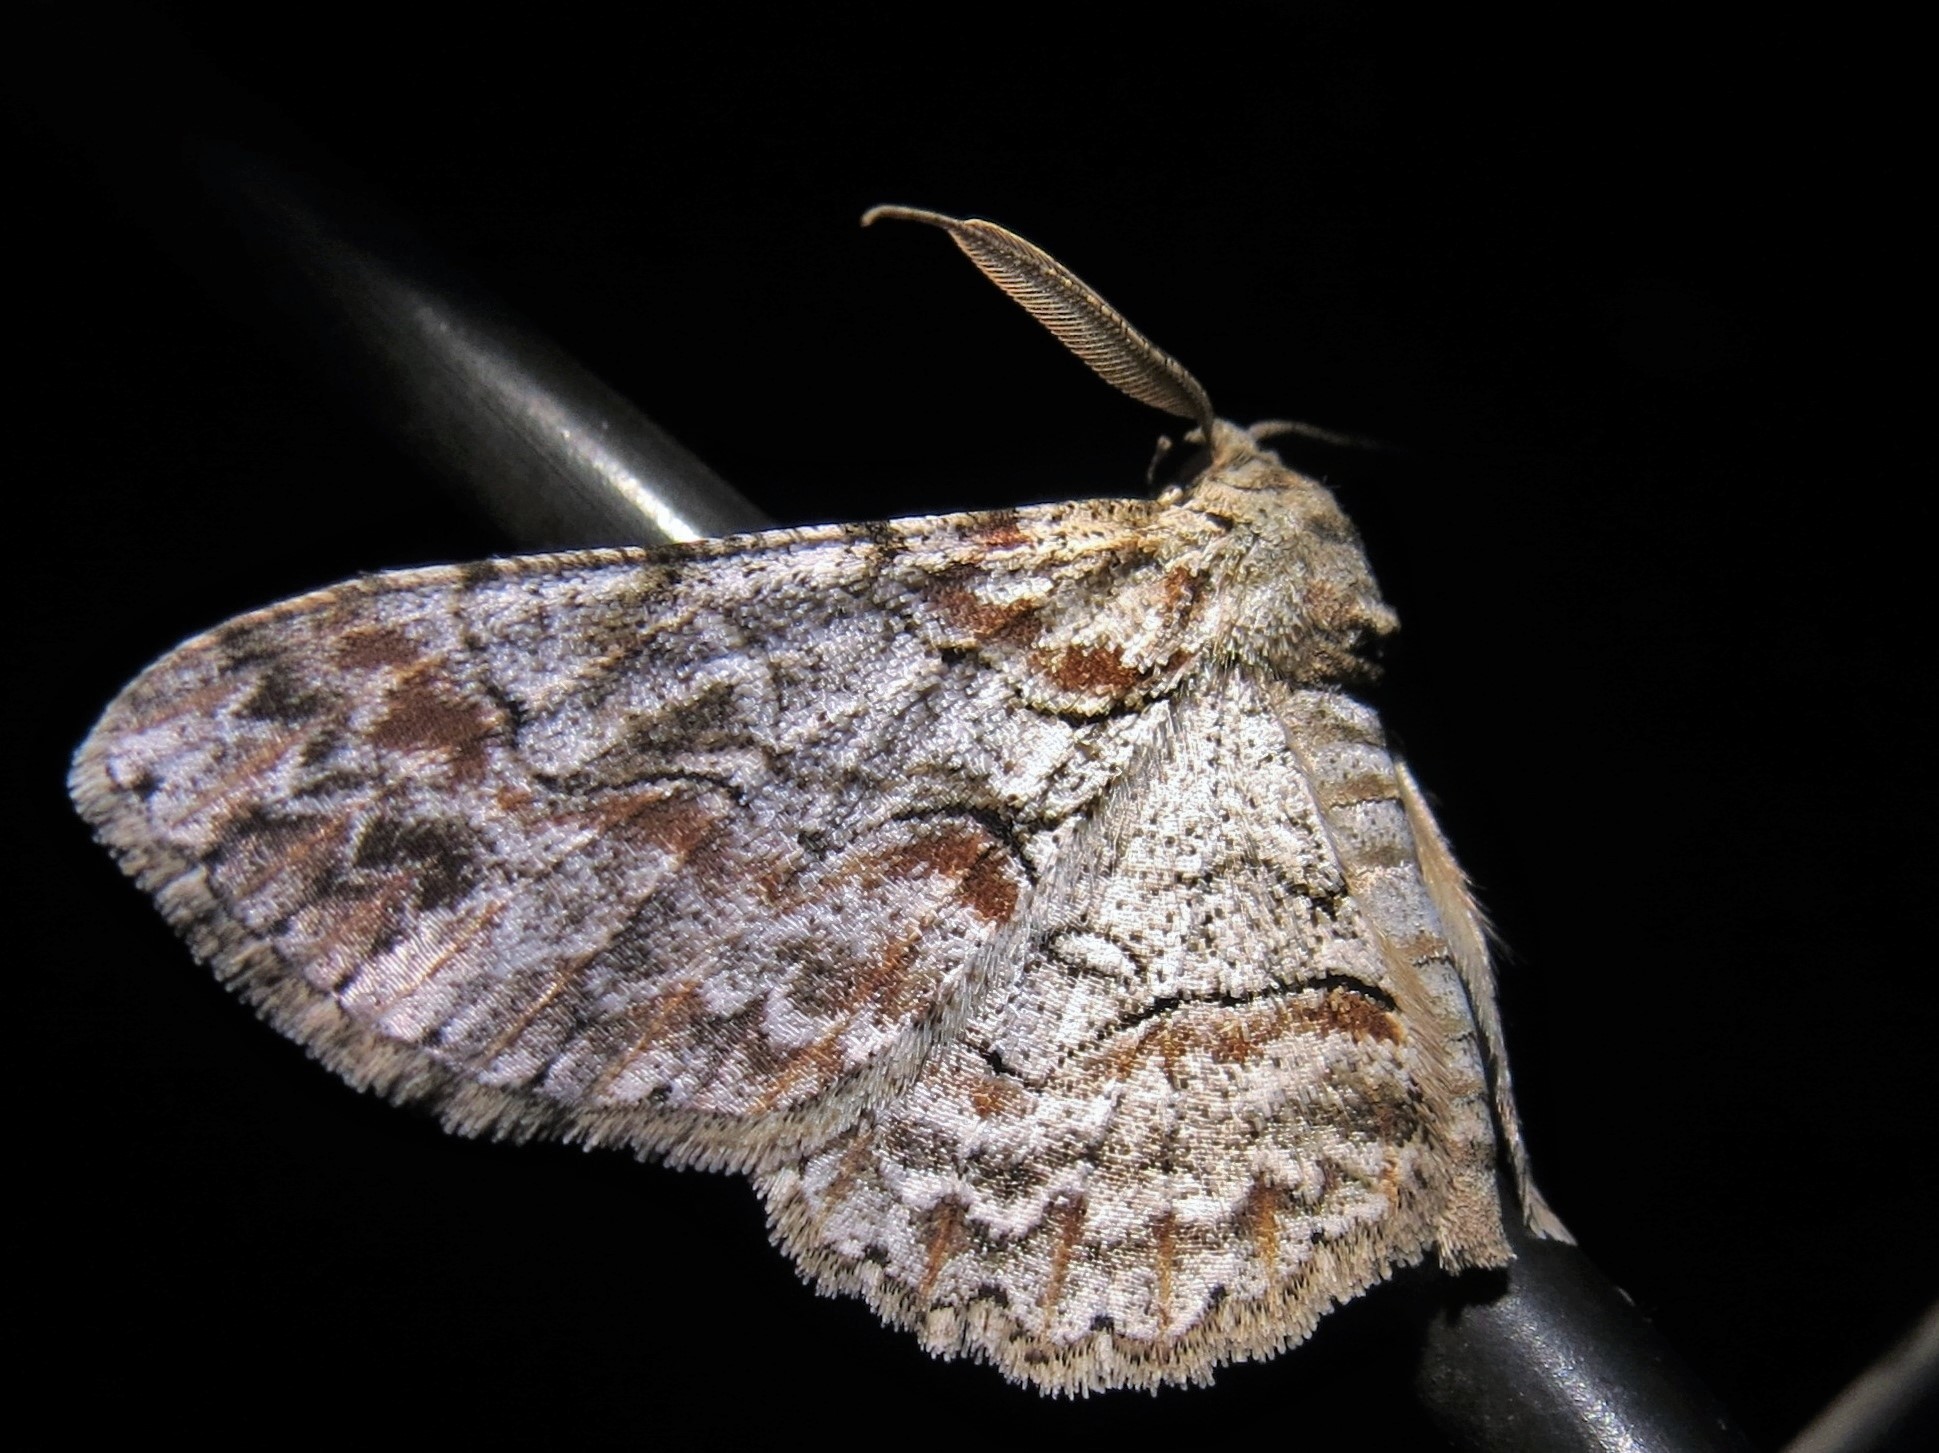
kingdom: Animalia
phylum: Arthropoda
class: Insecta
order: Lepidoptera
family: Geometridae
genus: Iridopsis
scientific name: Iridopsis defectaria
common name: Brown-shaded gray
